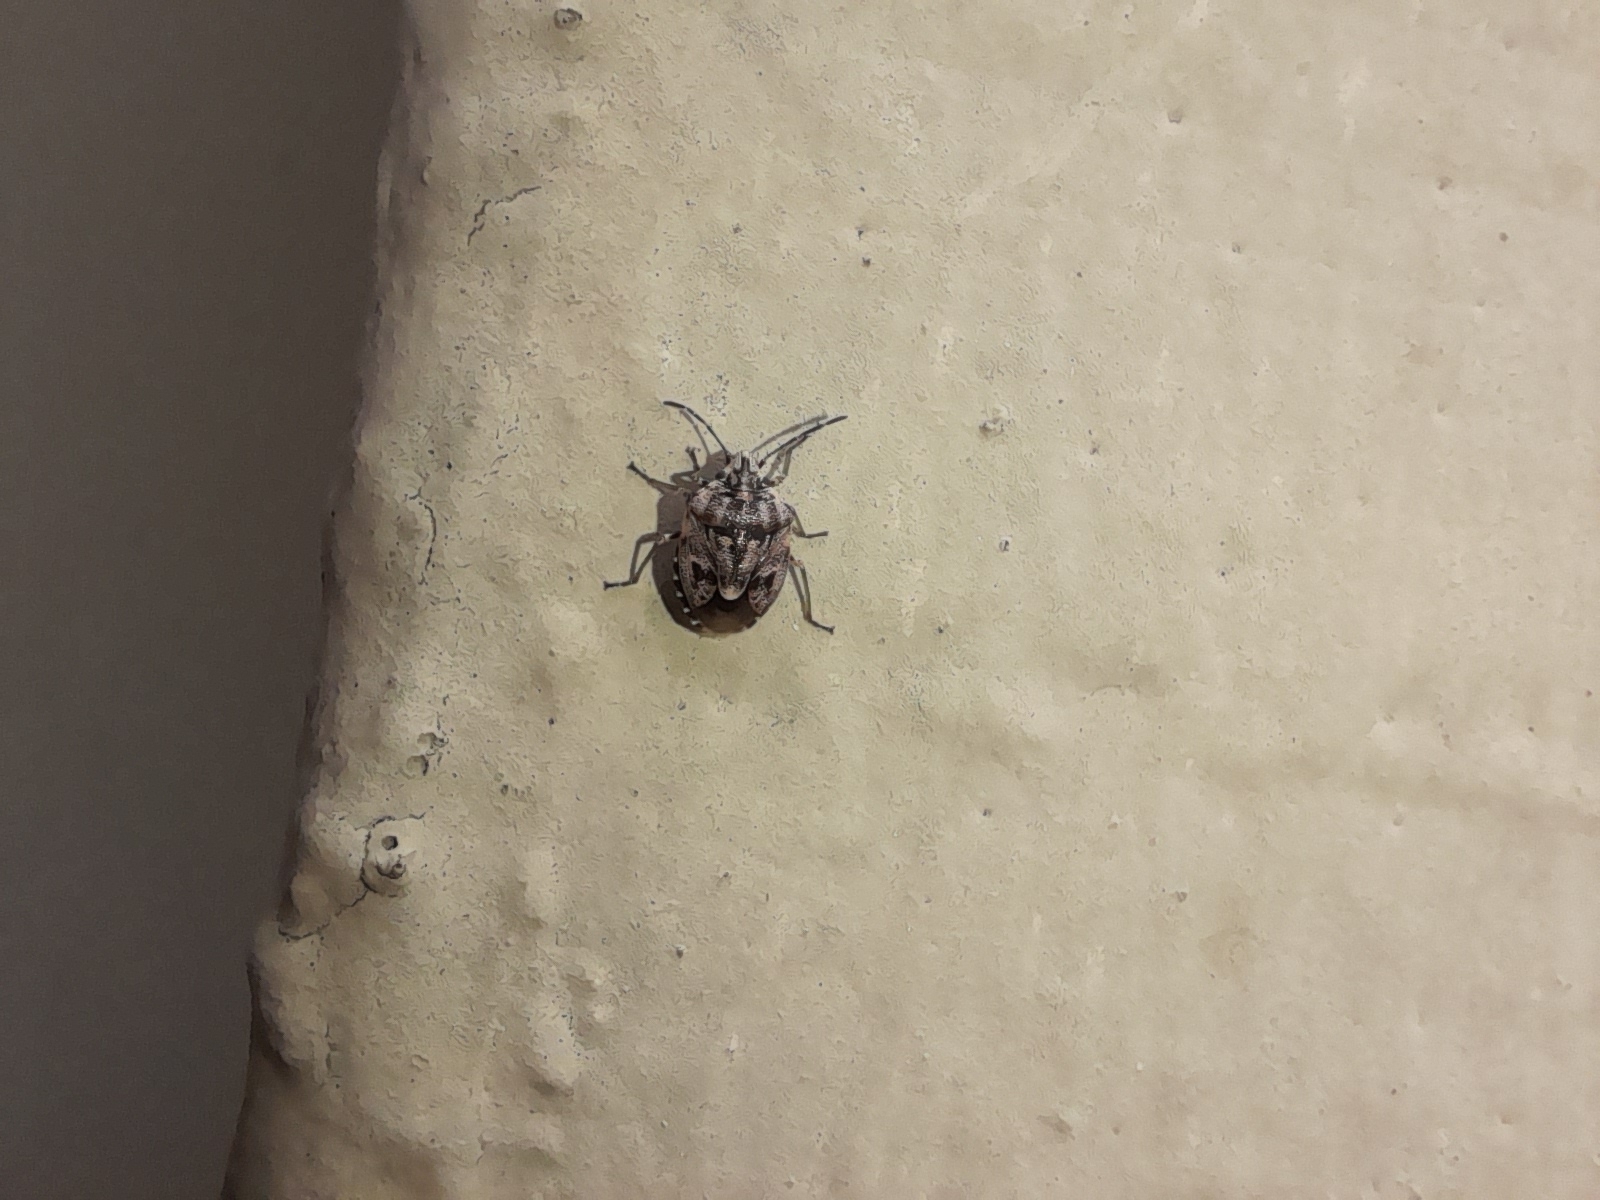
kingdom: Animalia
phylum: Arthropoda
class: Insecta
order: Hemiptera
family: Pentatomidae
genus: Holcogaster
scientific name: Holcogaster fibulata
